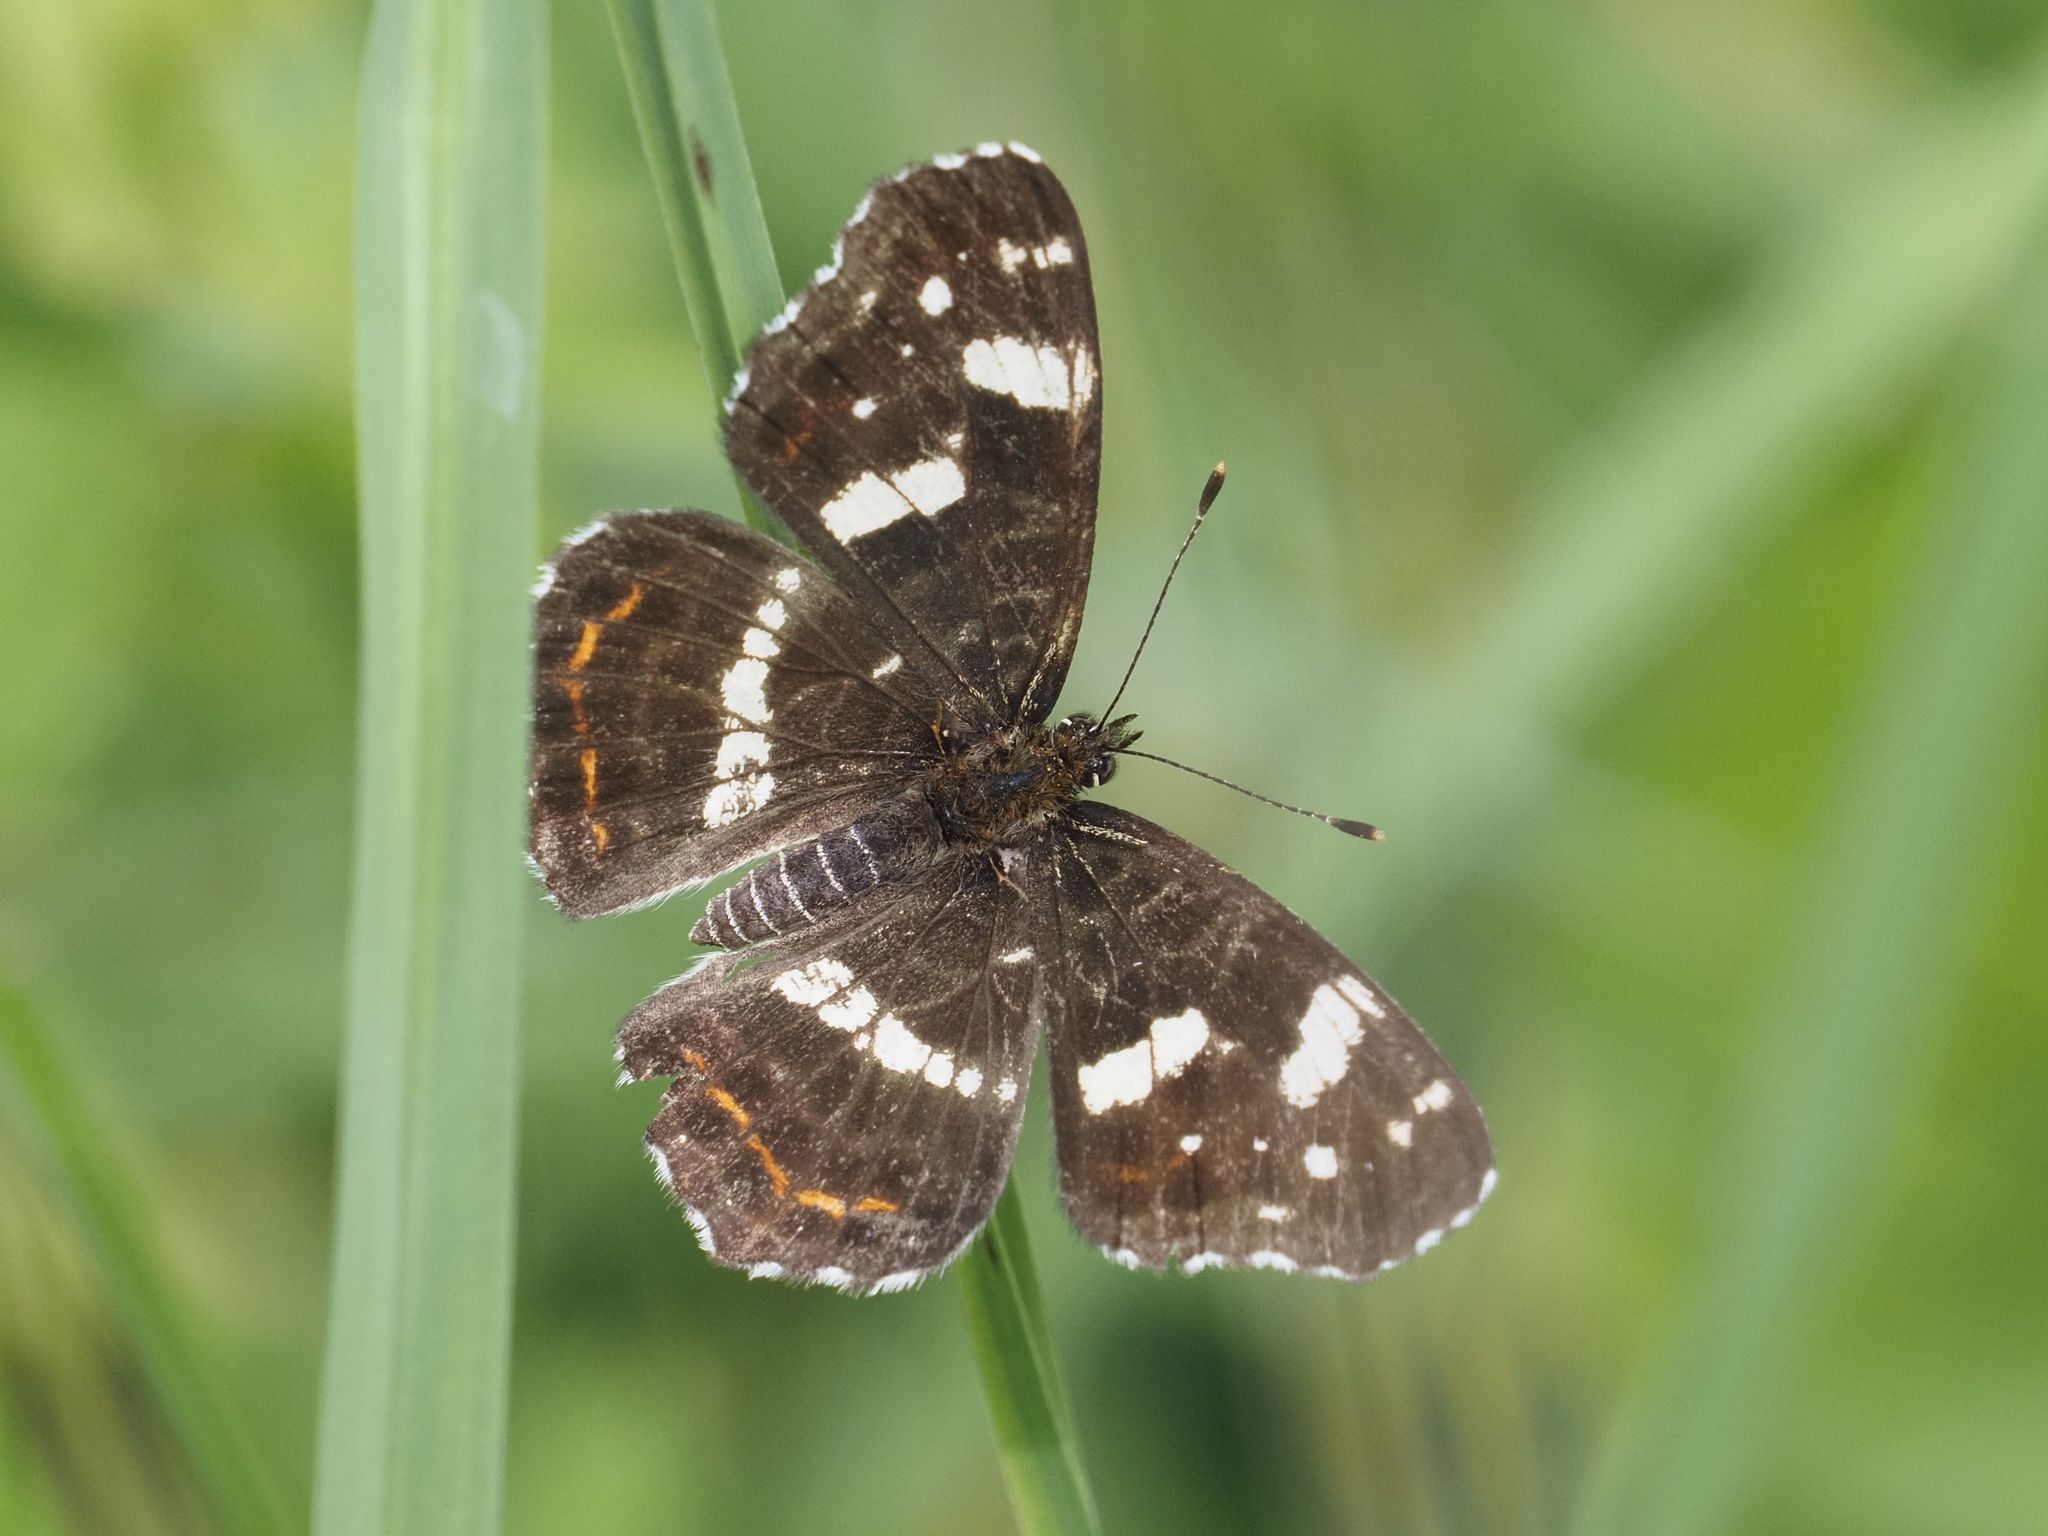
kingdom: Animalia
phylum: Arthropoda
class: Insecta
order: Lepidoptera
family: Nymphalidae
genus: Araschnia
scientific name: Araschnia levana
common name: Map butterfly
